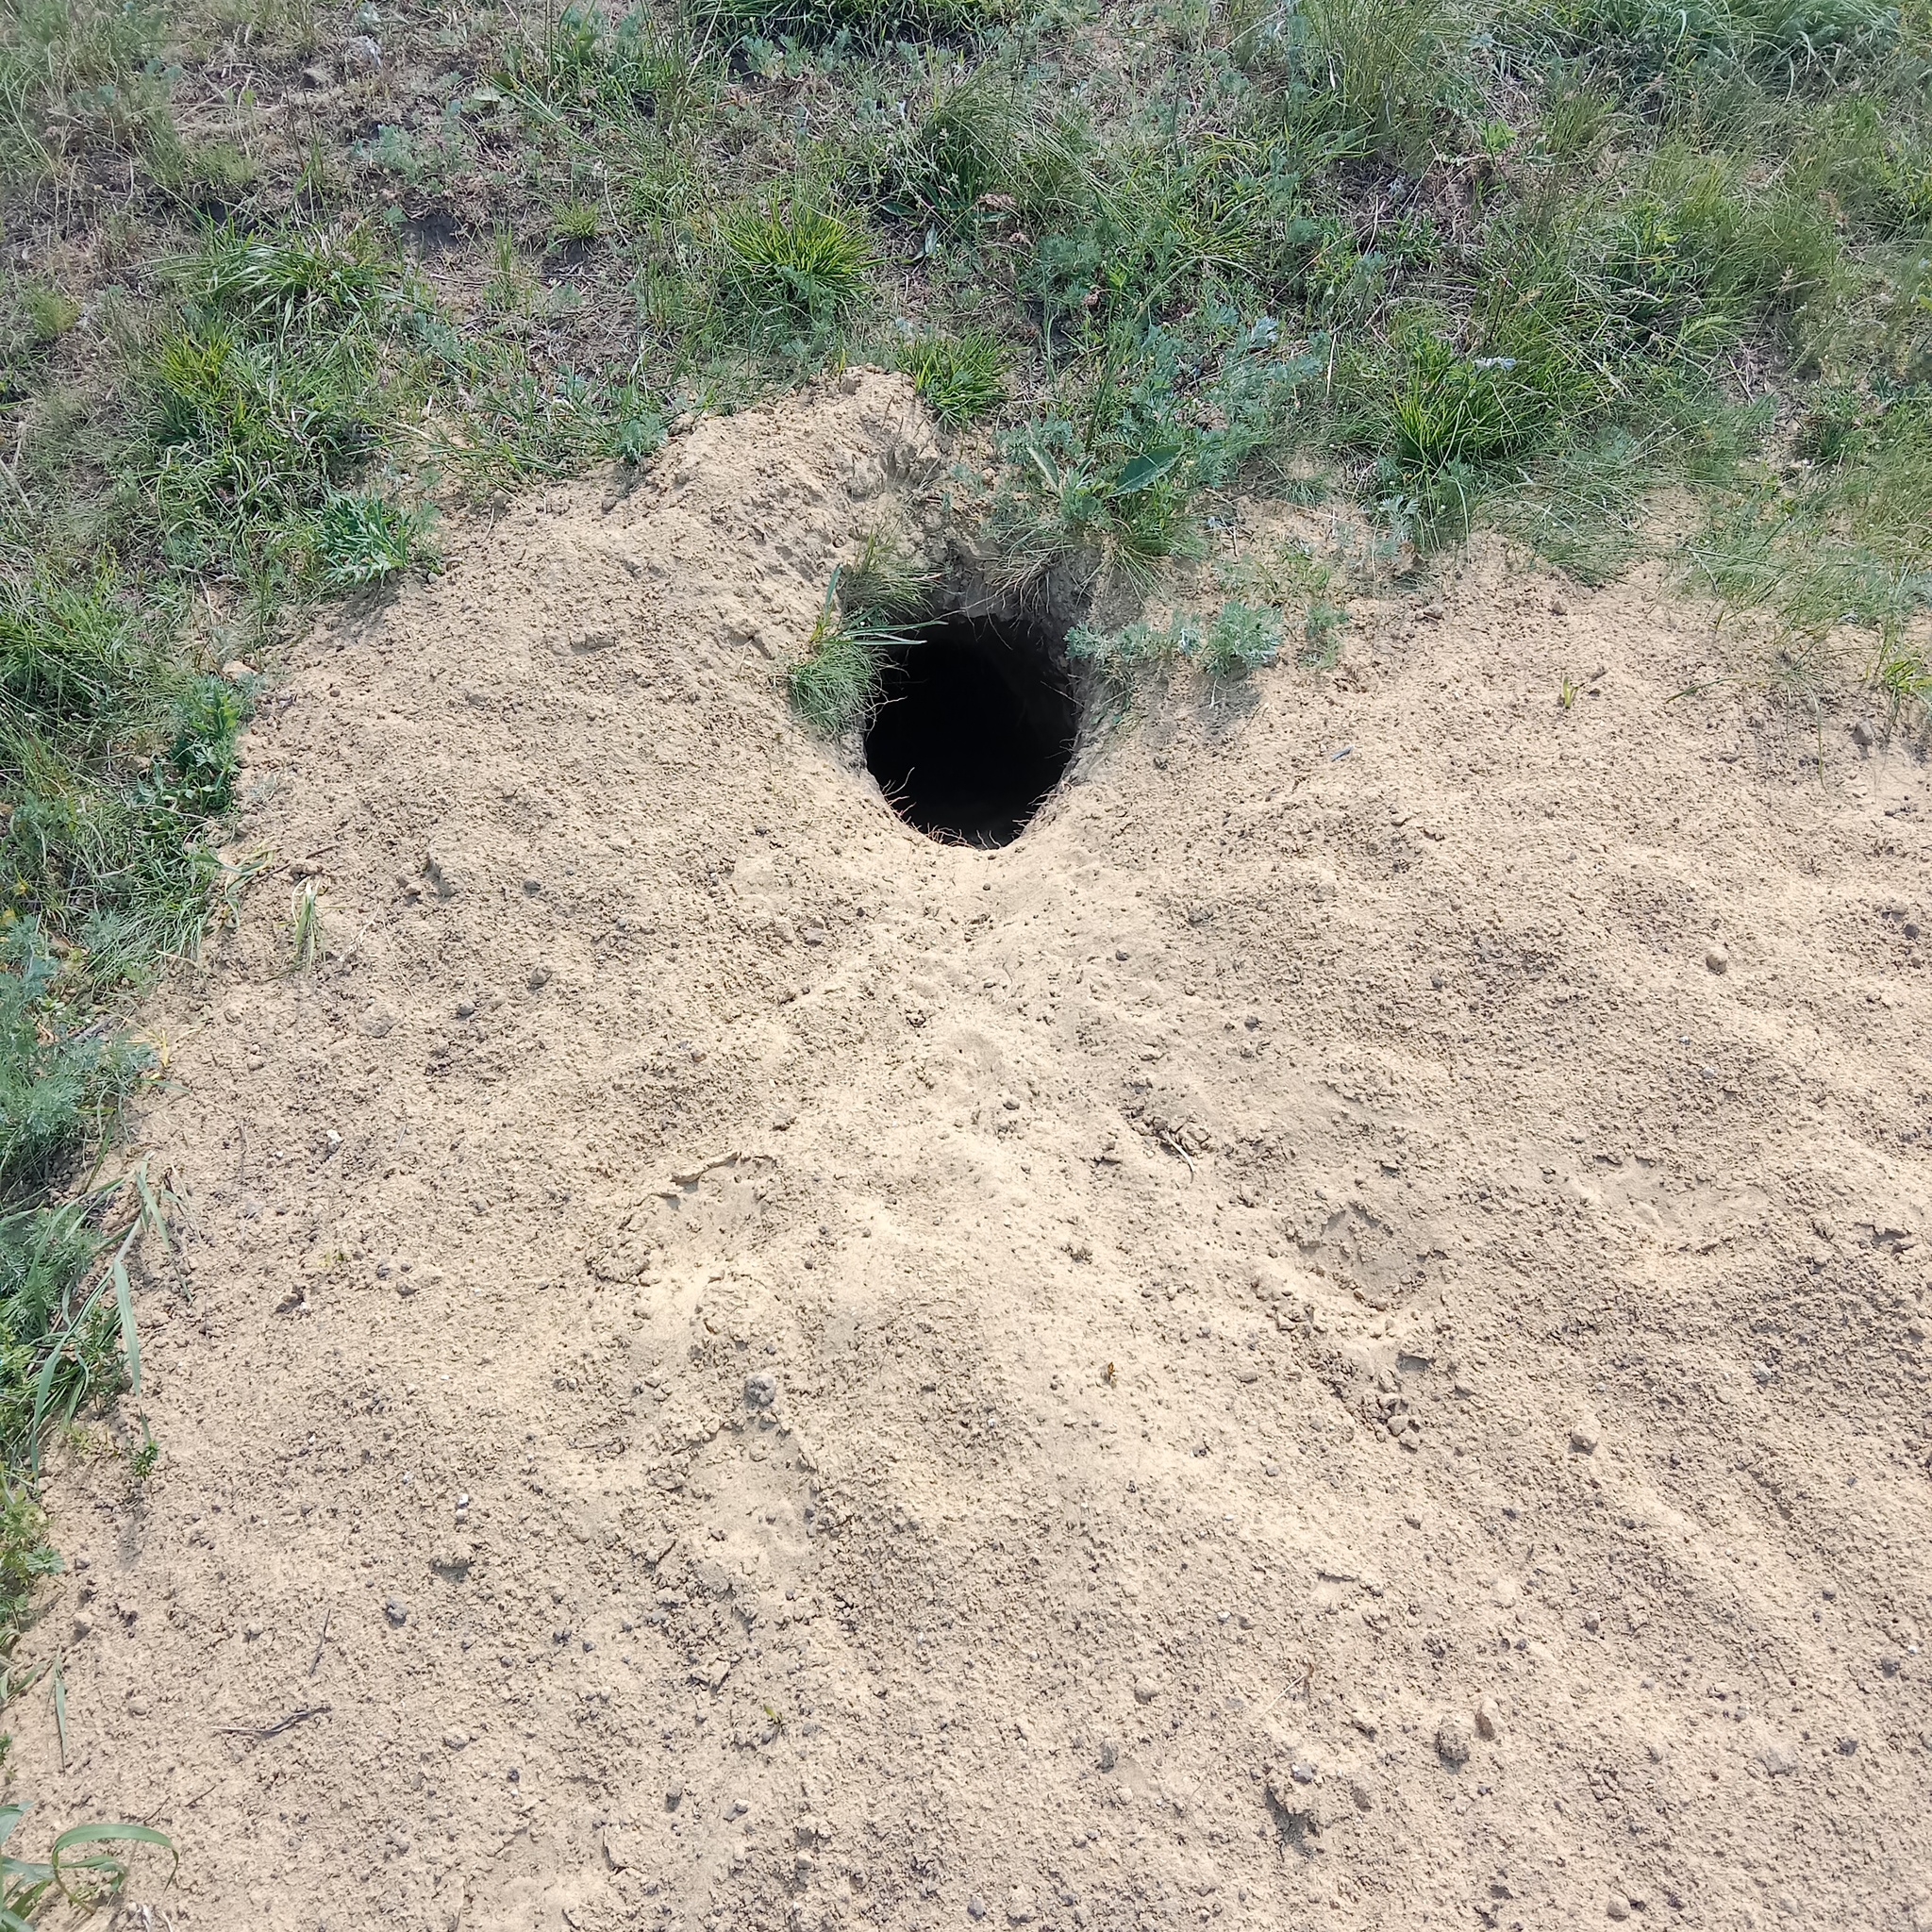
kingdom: Animalia
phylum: Chordata
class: Mammalia
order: Rodentia
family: Sciuridae
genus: Marmota
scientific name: Marmota bobak
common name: Bobak marmot
